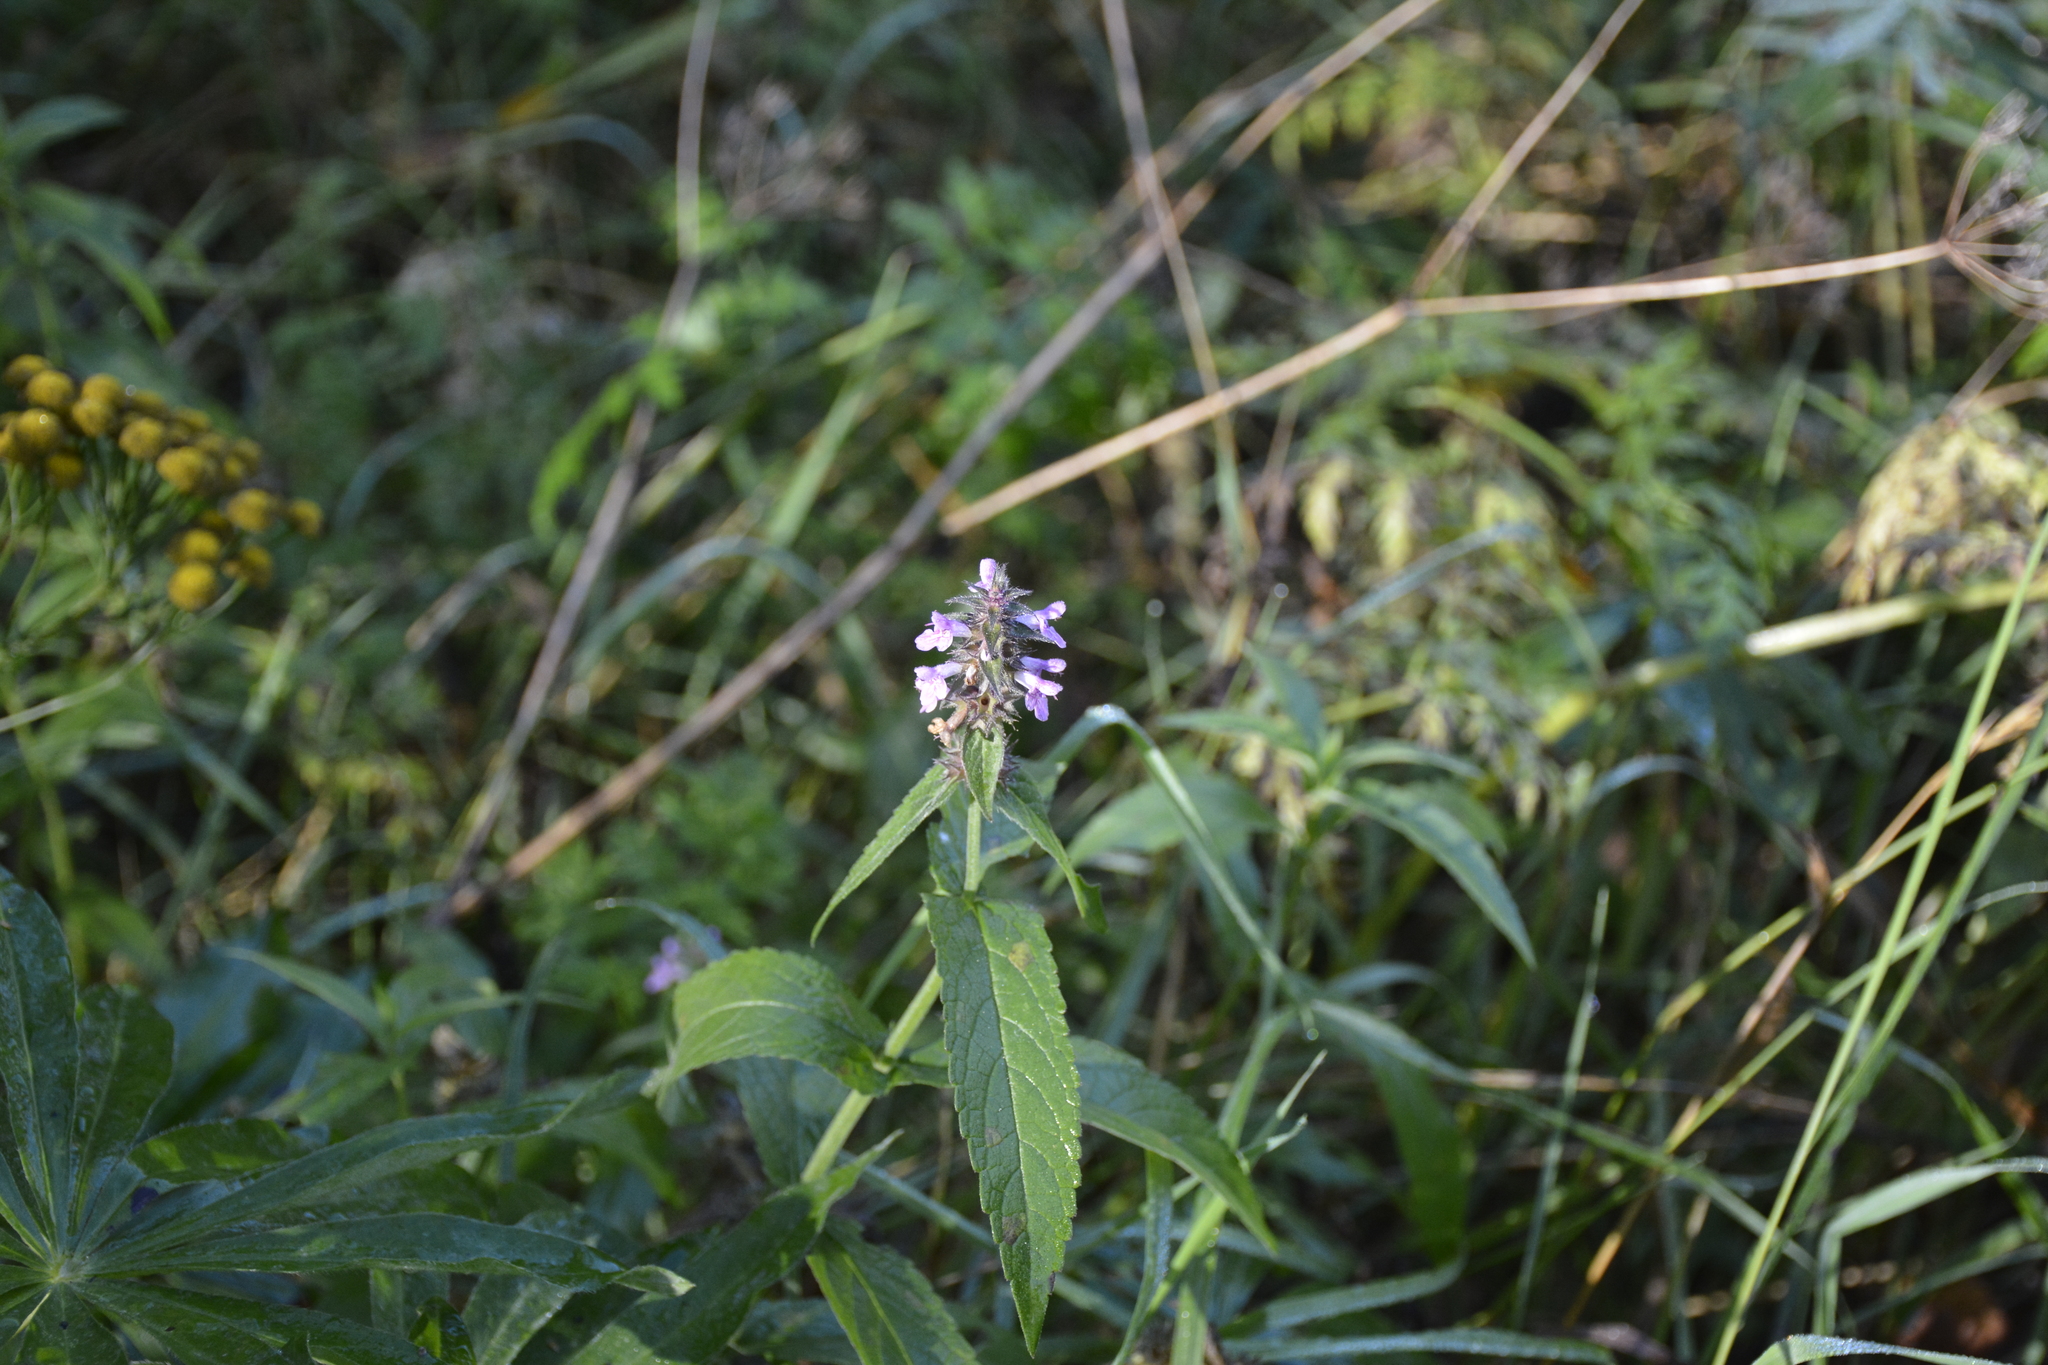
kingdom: Plantae
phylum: Tracheophyta
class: Magnoliopsida
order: Lamiales
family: Lamiaceae
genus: Stachys
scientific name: Stachys palustris
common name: Marsh woundwort
